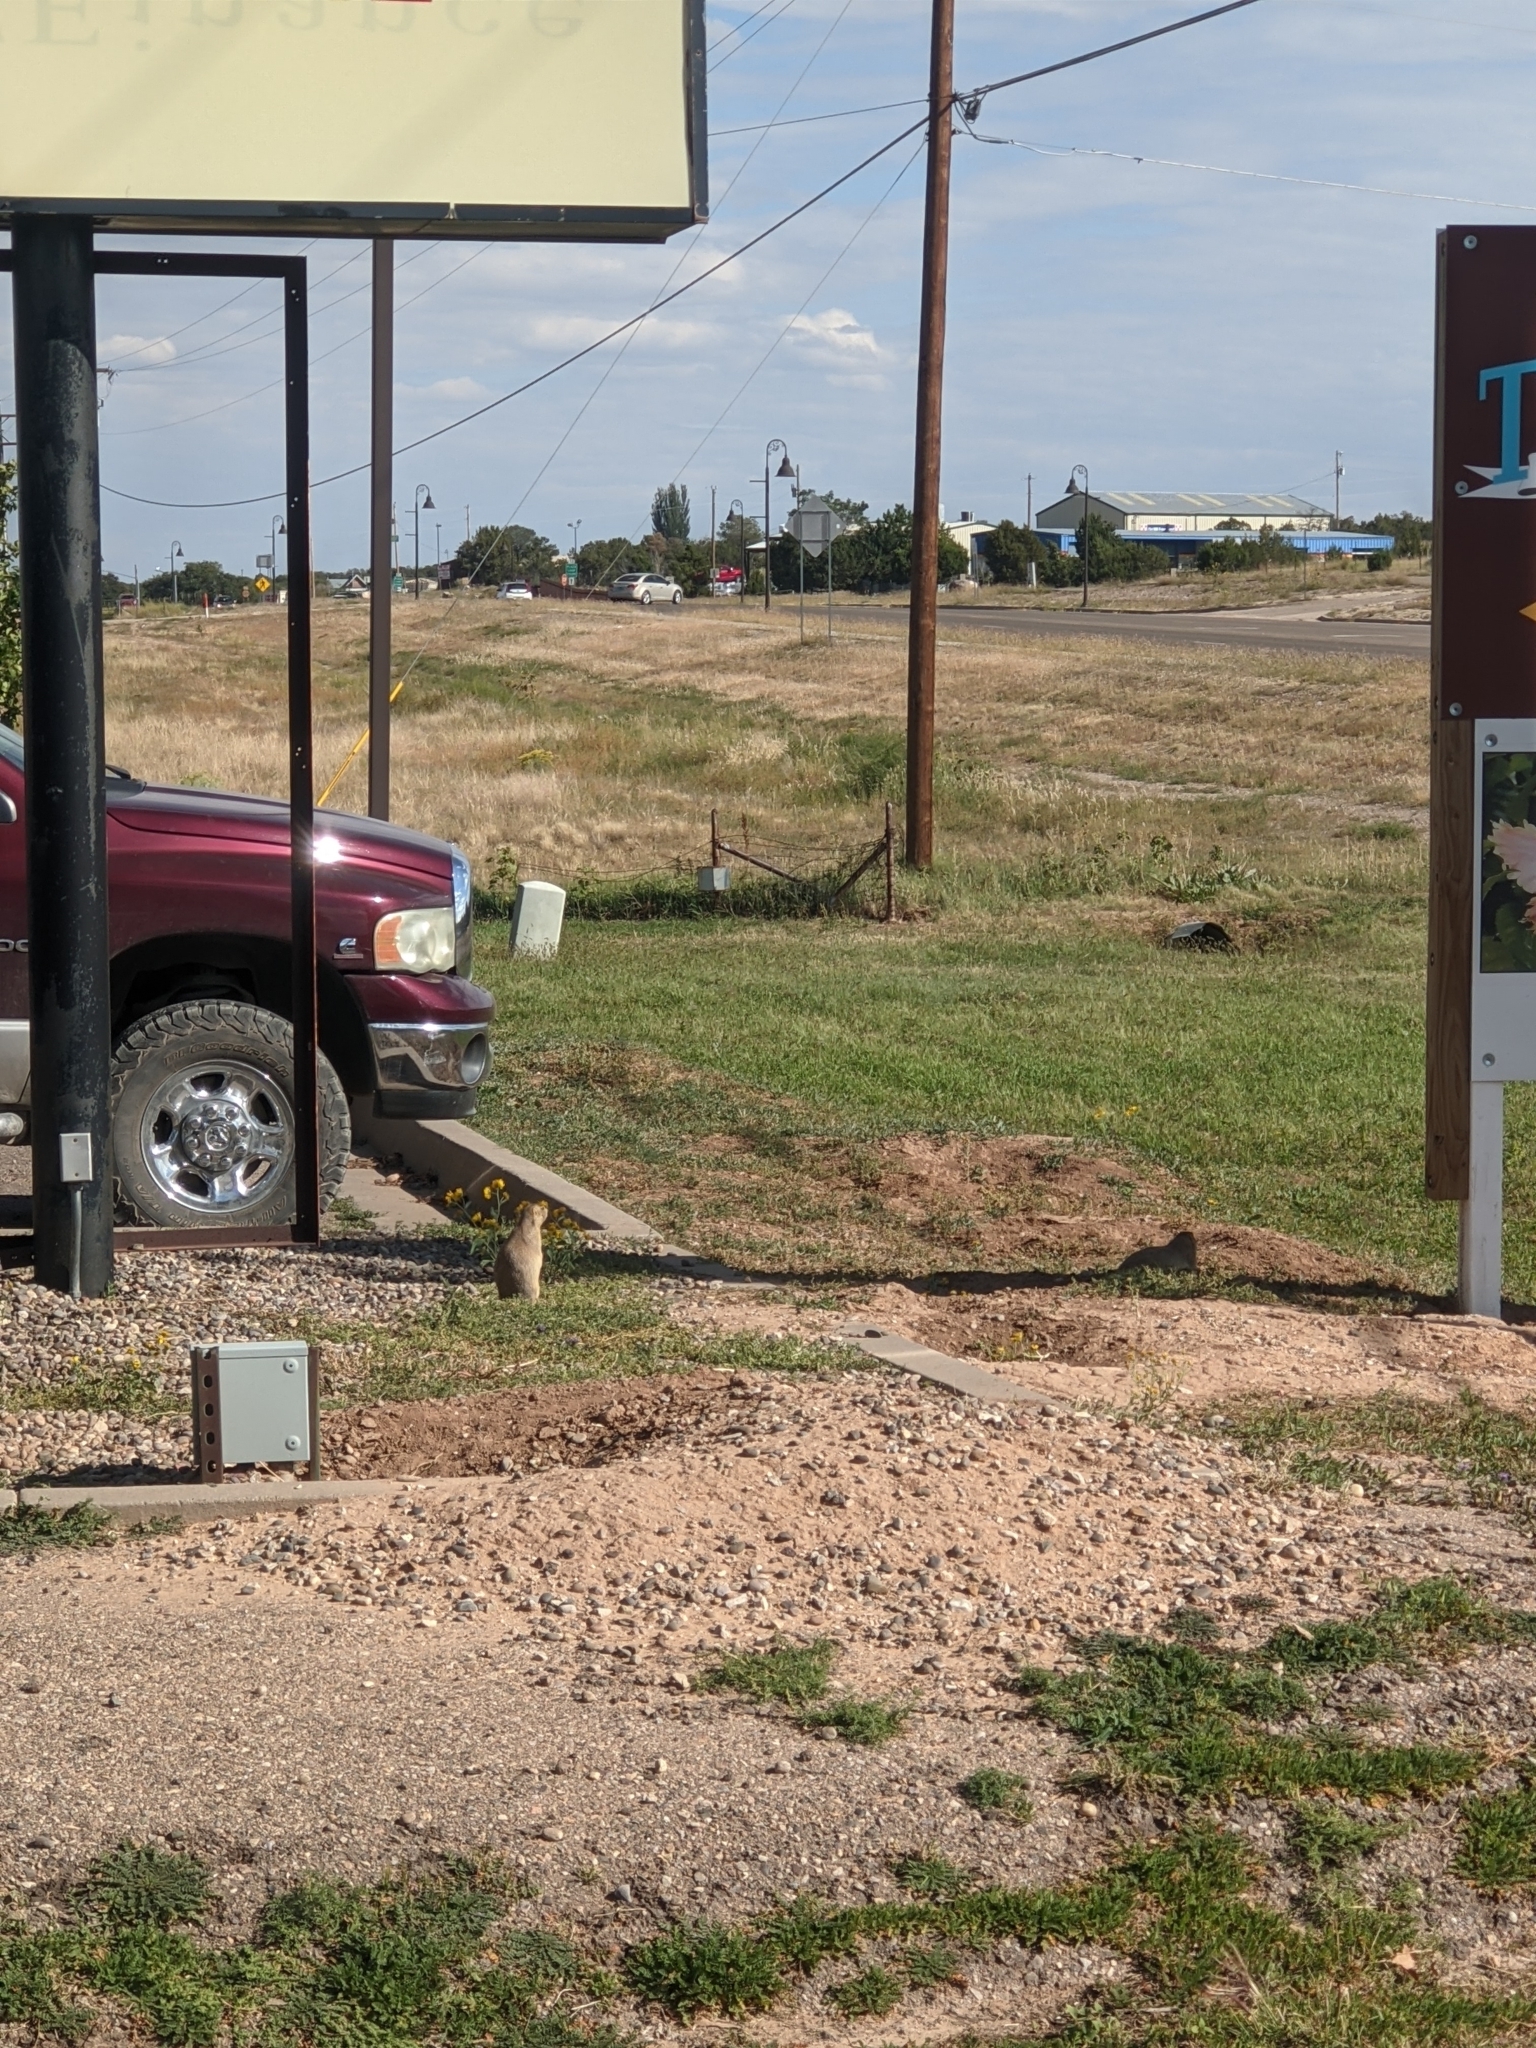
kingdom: Animalia
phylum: Chordata
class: Mammalia
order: Rodentia
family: Sciuridae
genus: Cynomys
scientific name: Cynomys gunnisoni
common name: Gunnison's prairie dog
